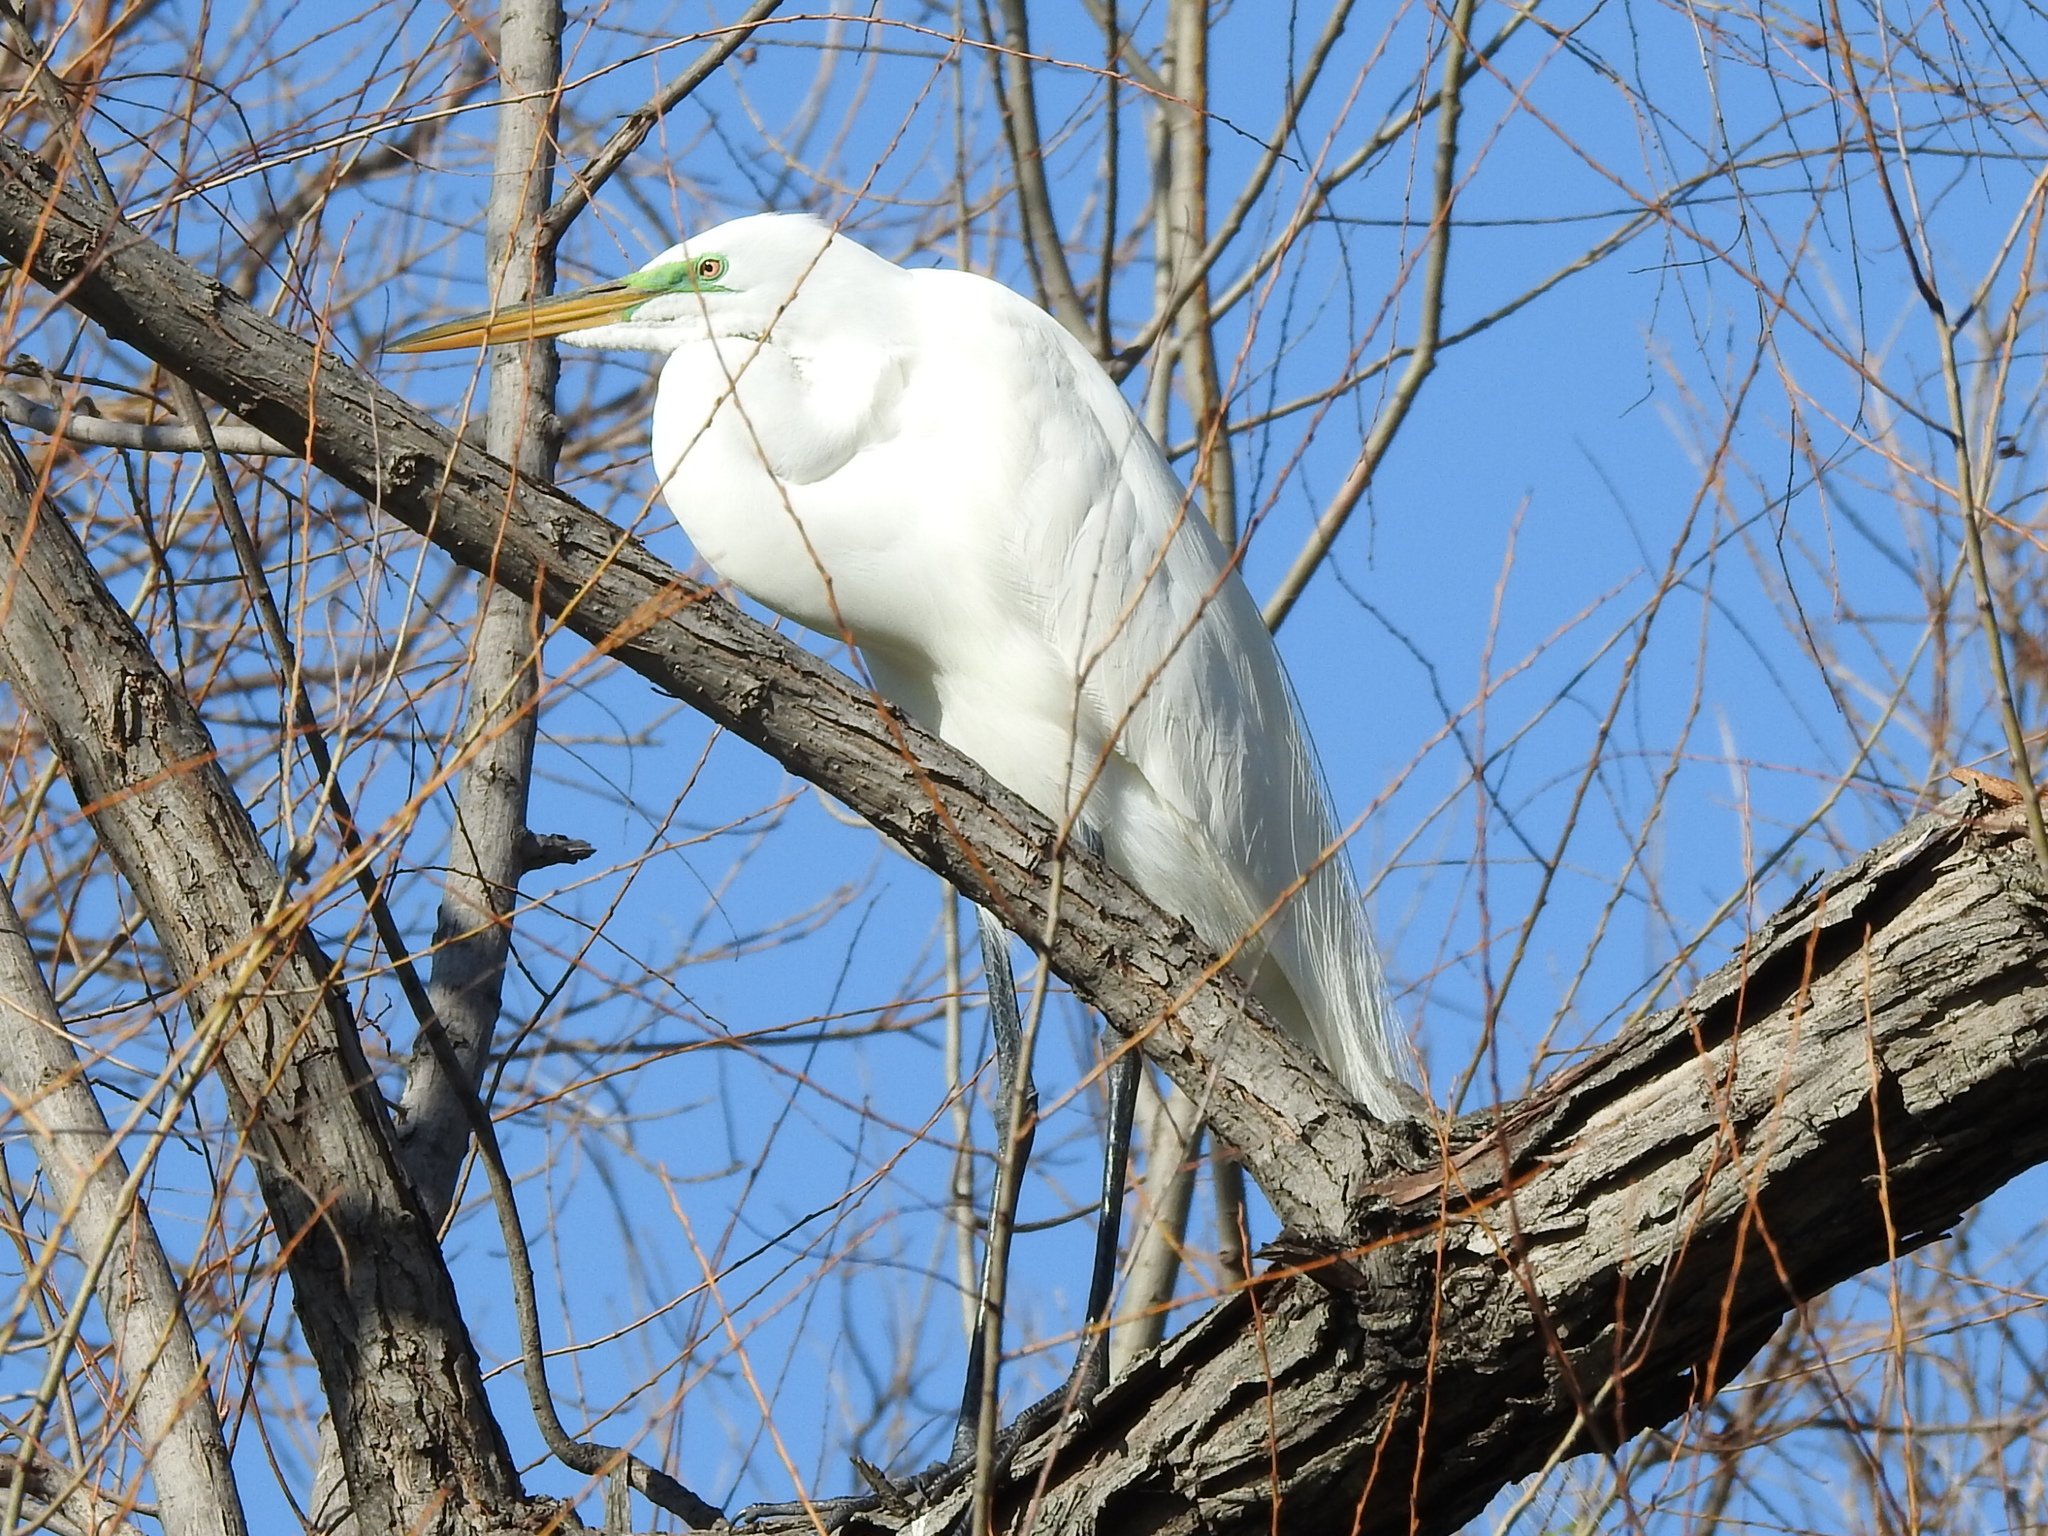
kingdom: Animalia
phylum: Chordata
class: Aves
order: Pelecaniformes
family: Ardeidae
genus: Ardea
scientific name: Ardea alba
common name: Great egret
